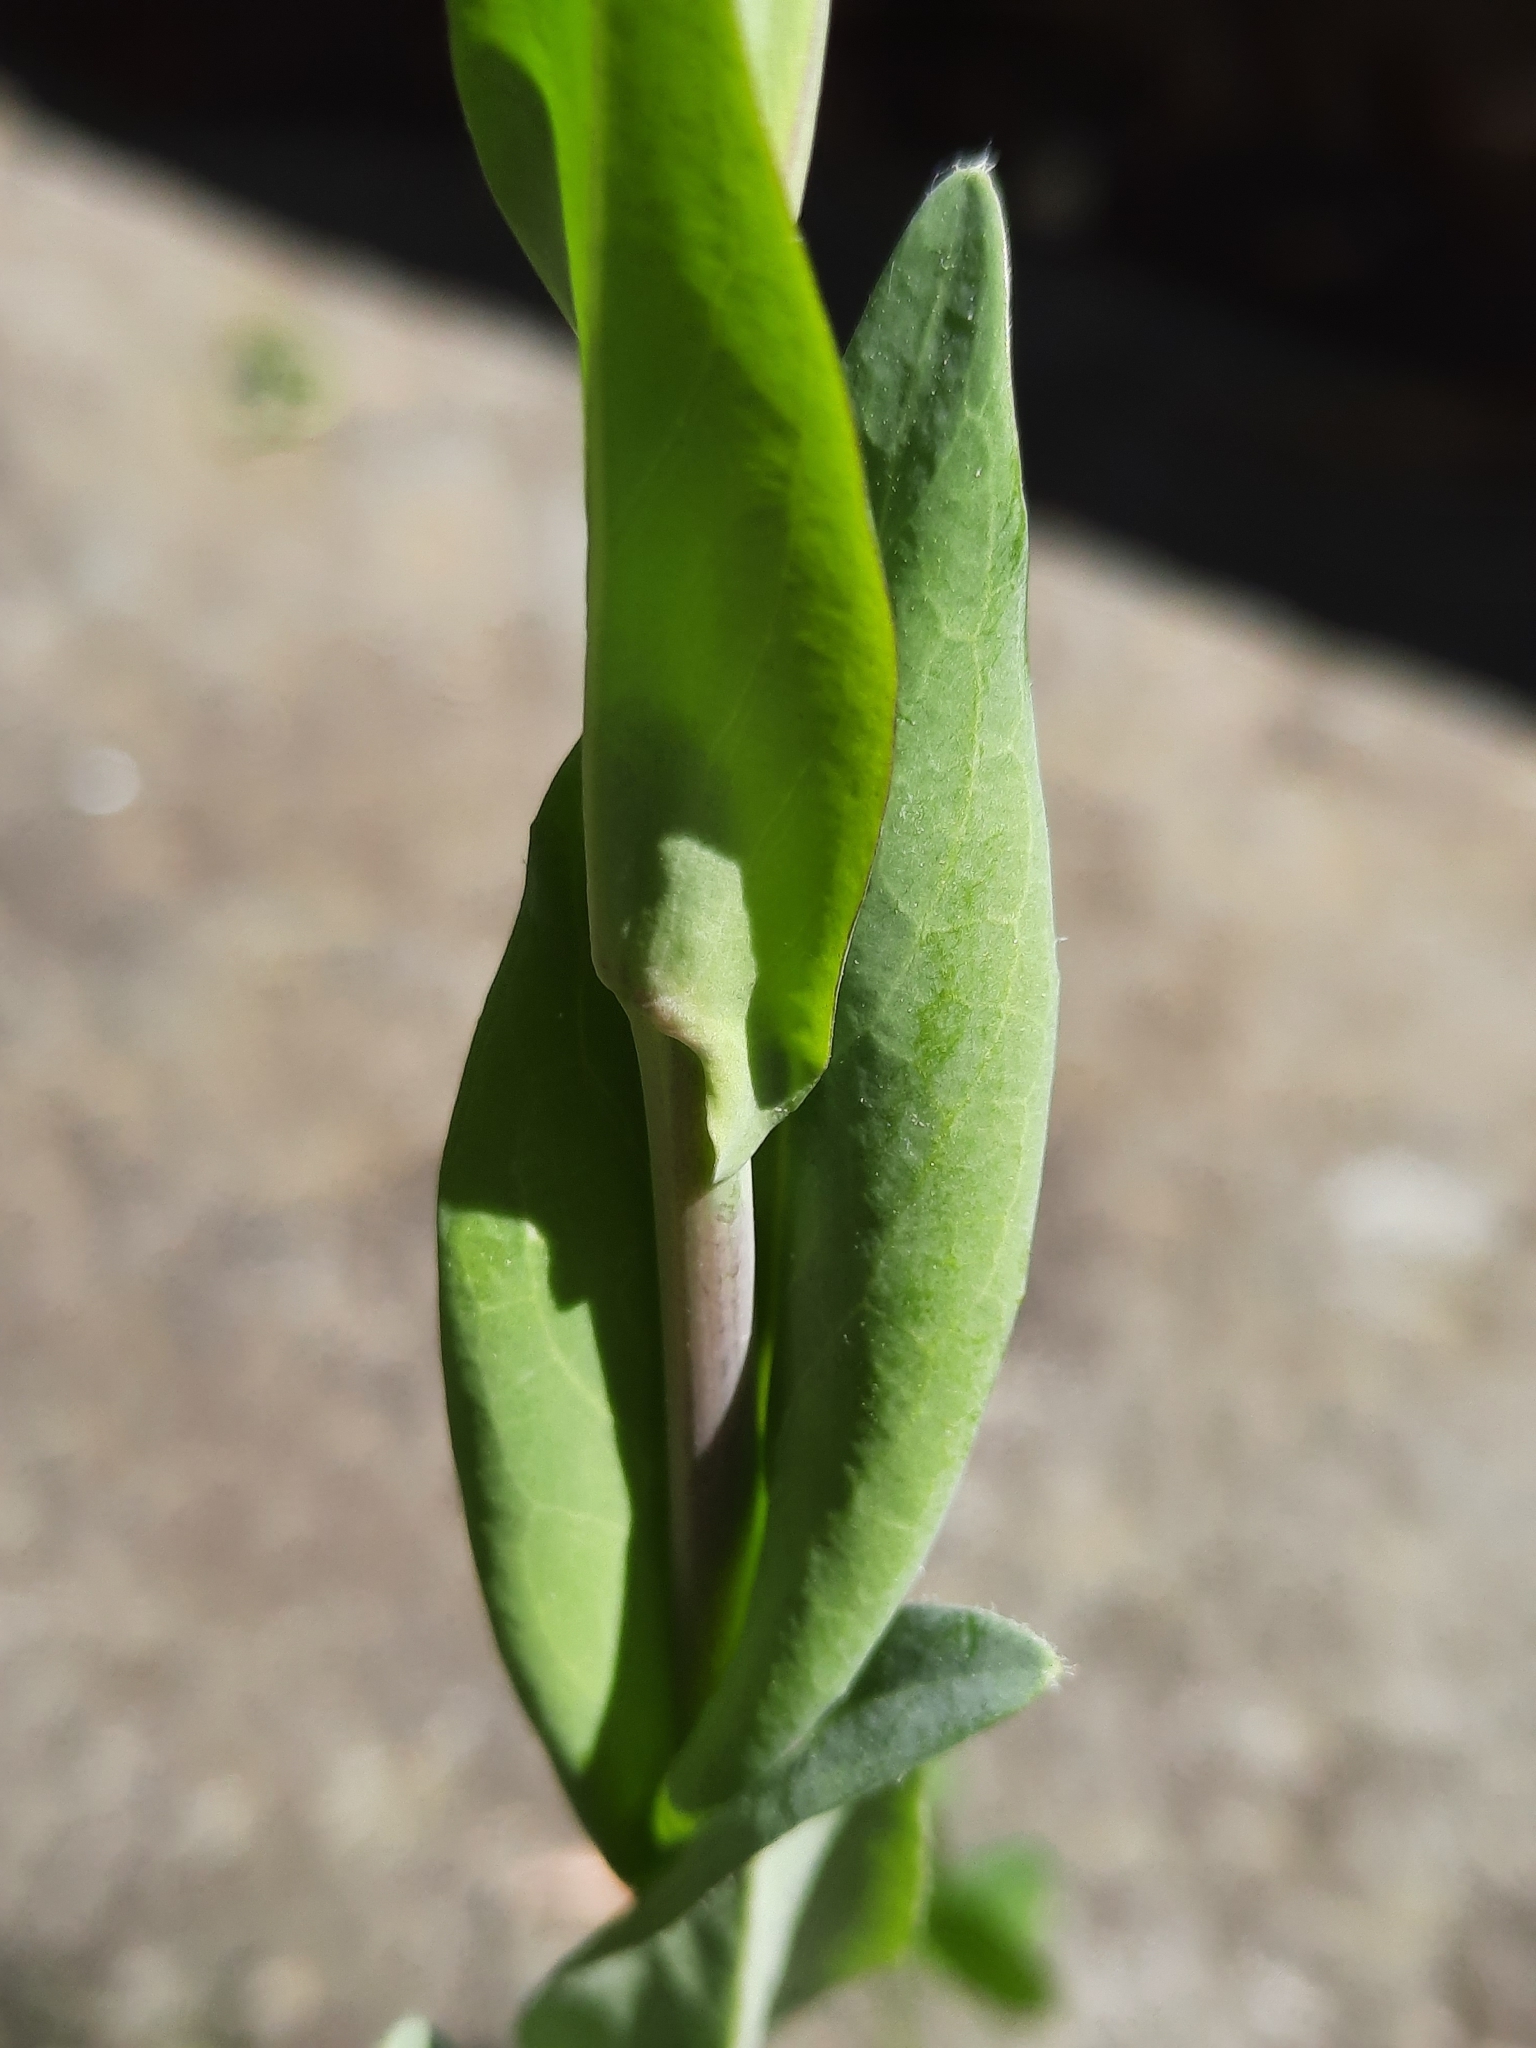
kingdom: Plantae
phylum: Tracheophyta
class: Magnoliopsida
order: Brassicales
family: Brassicaceae
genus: Turritis
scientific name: Turritis glabra
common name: Tower rockcress
